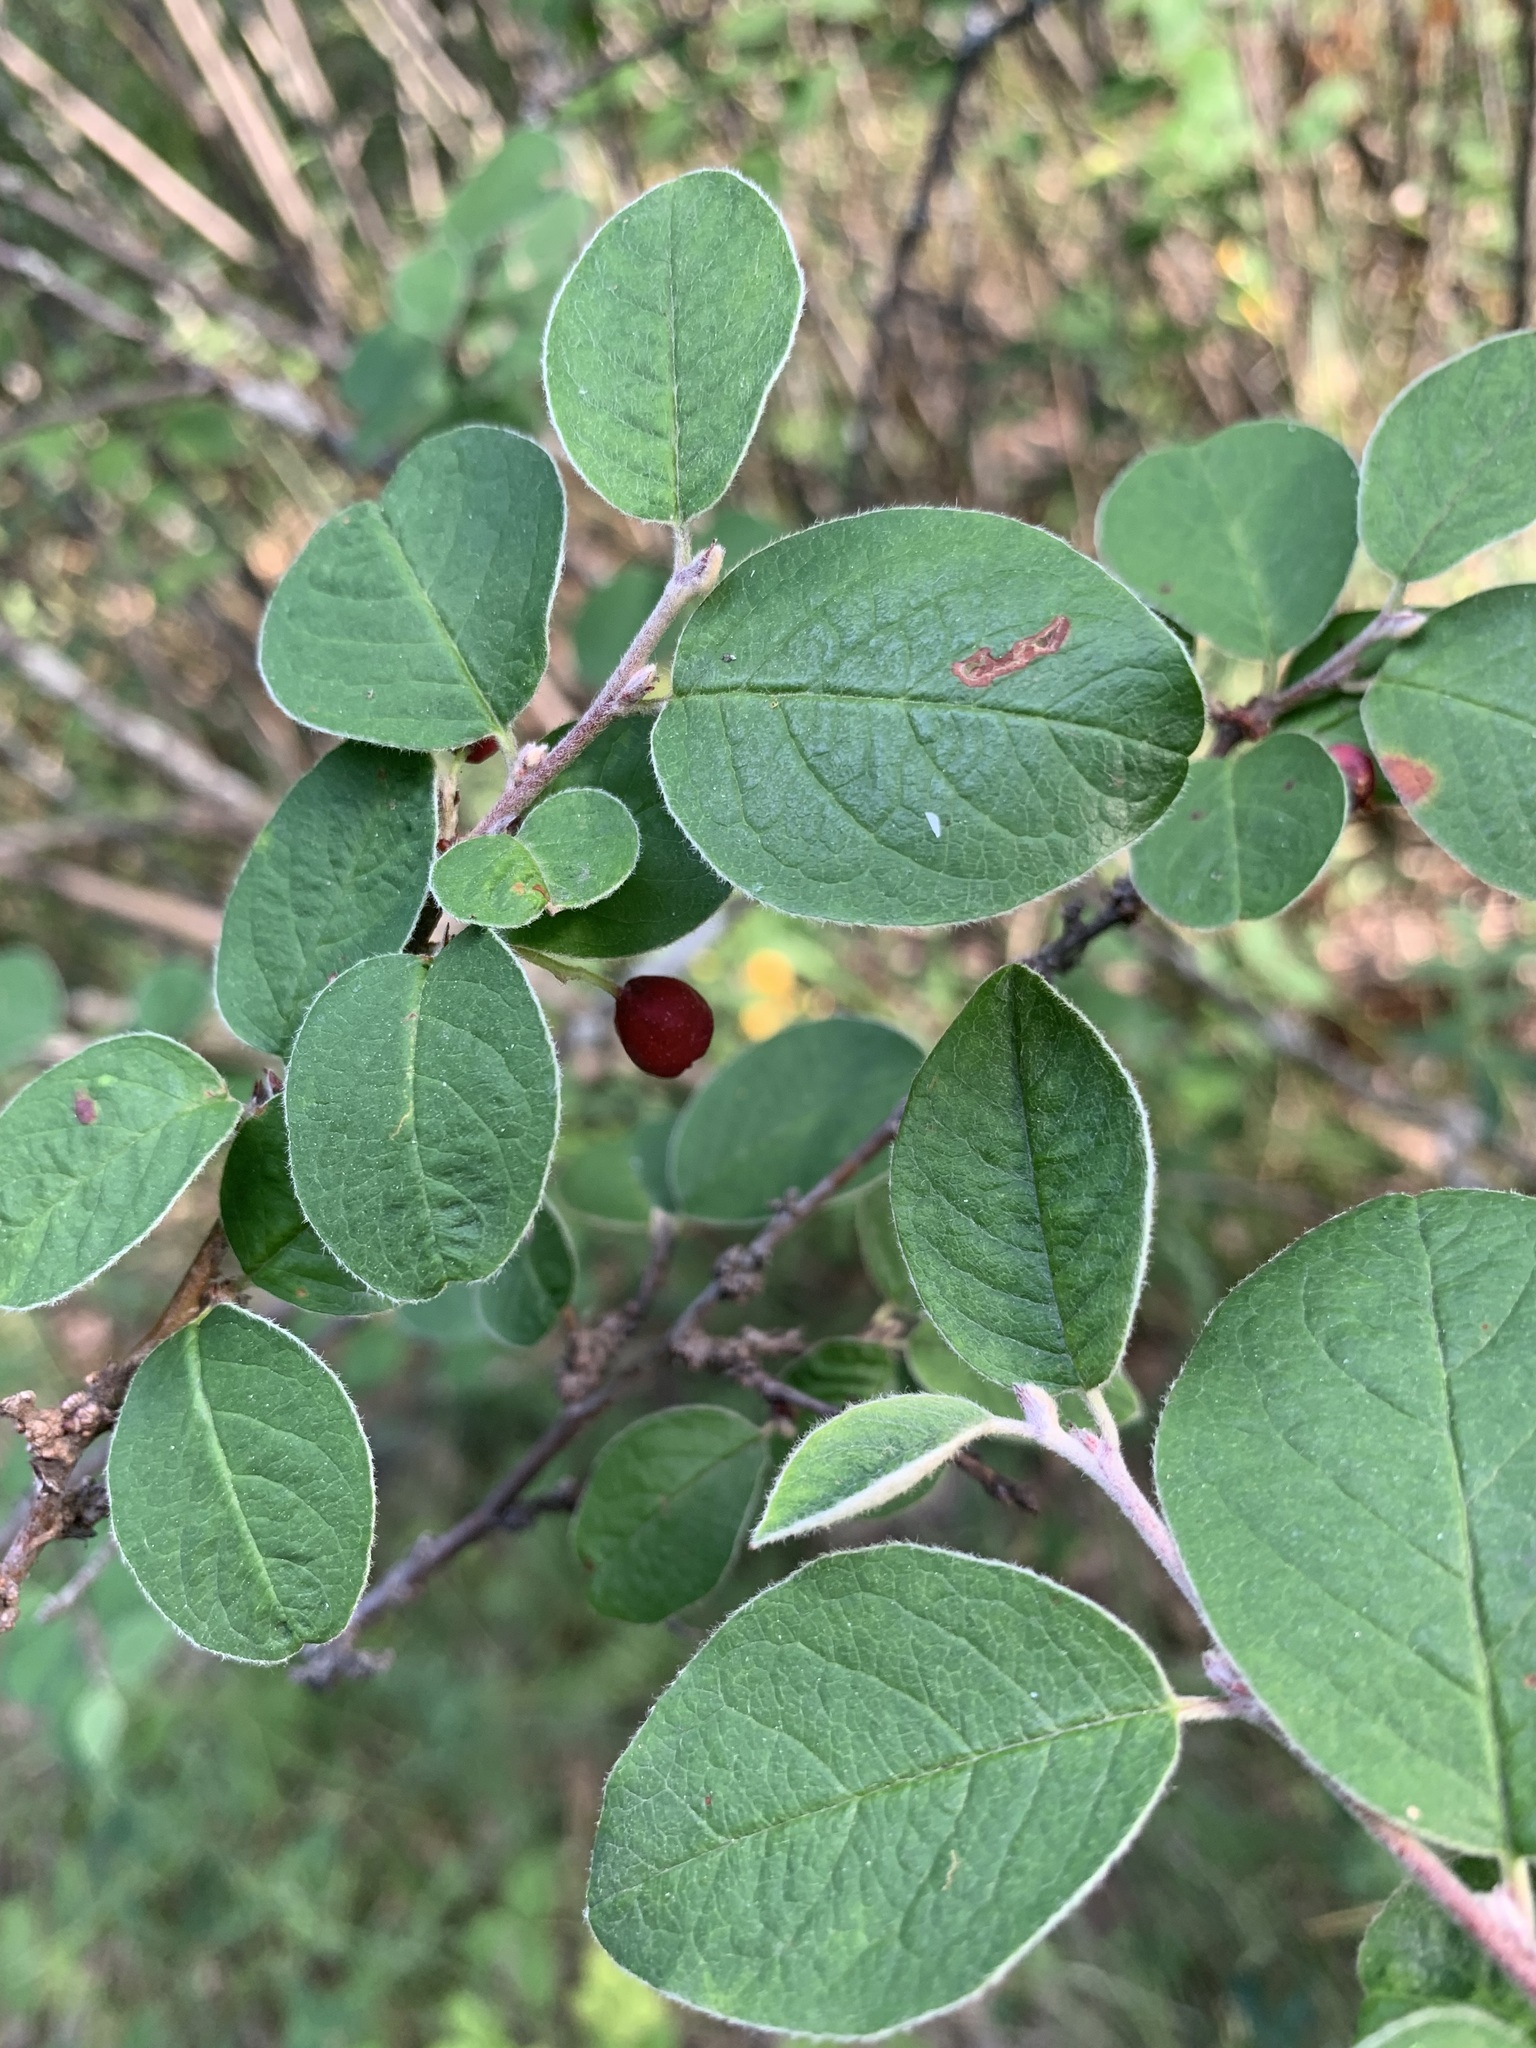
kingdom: Plantae
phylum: Tracheophyta
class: Magnoliopsida
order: Rosales
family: Rosaceae
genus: Cotoneaster
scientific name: Cotoneaster melanocarpus
